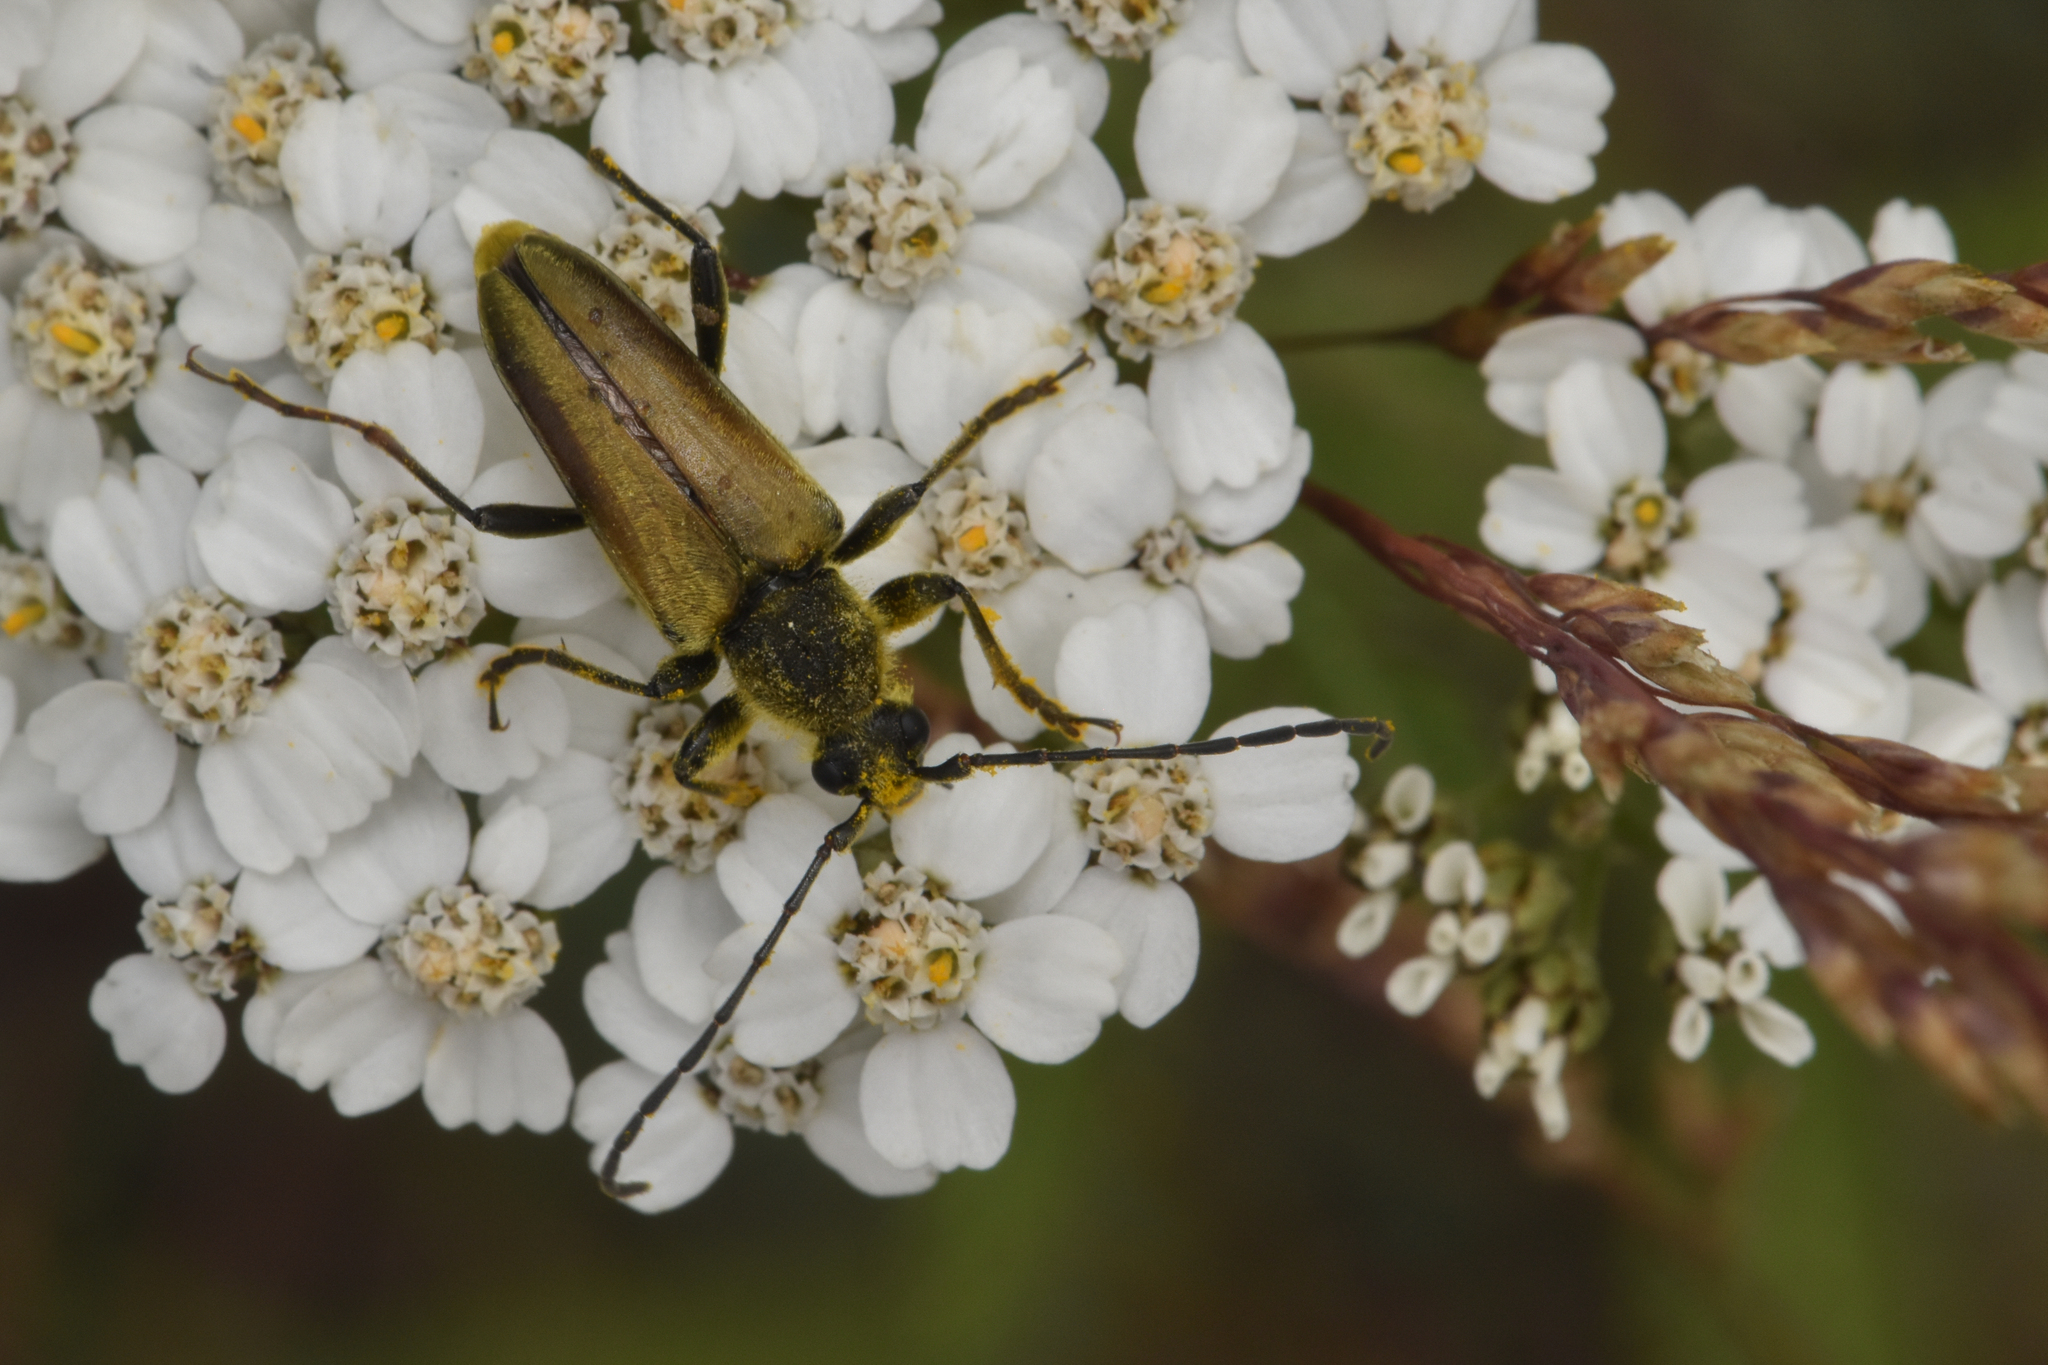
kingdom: Animalia
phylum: Arthropoda
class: Insecta
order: Coleoptera
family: Cerambycidae
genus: Cosmosalia
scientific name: Cosmosalia chrysocoma
